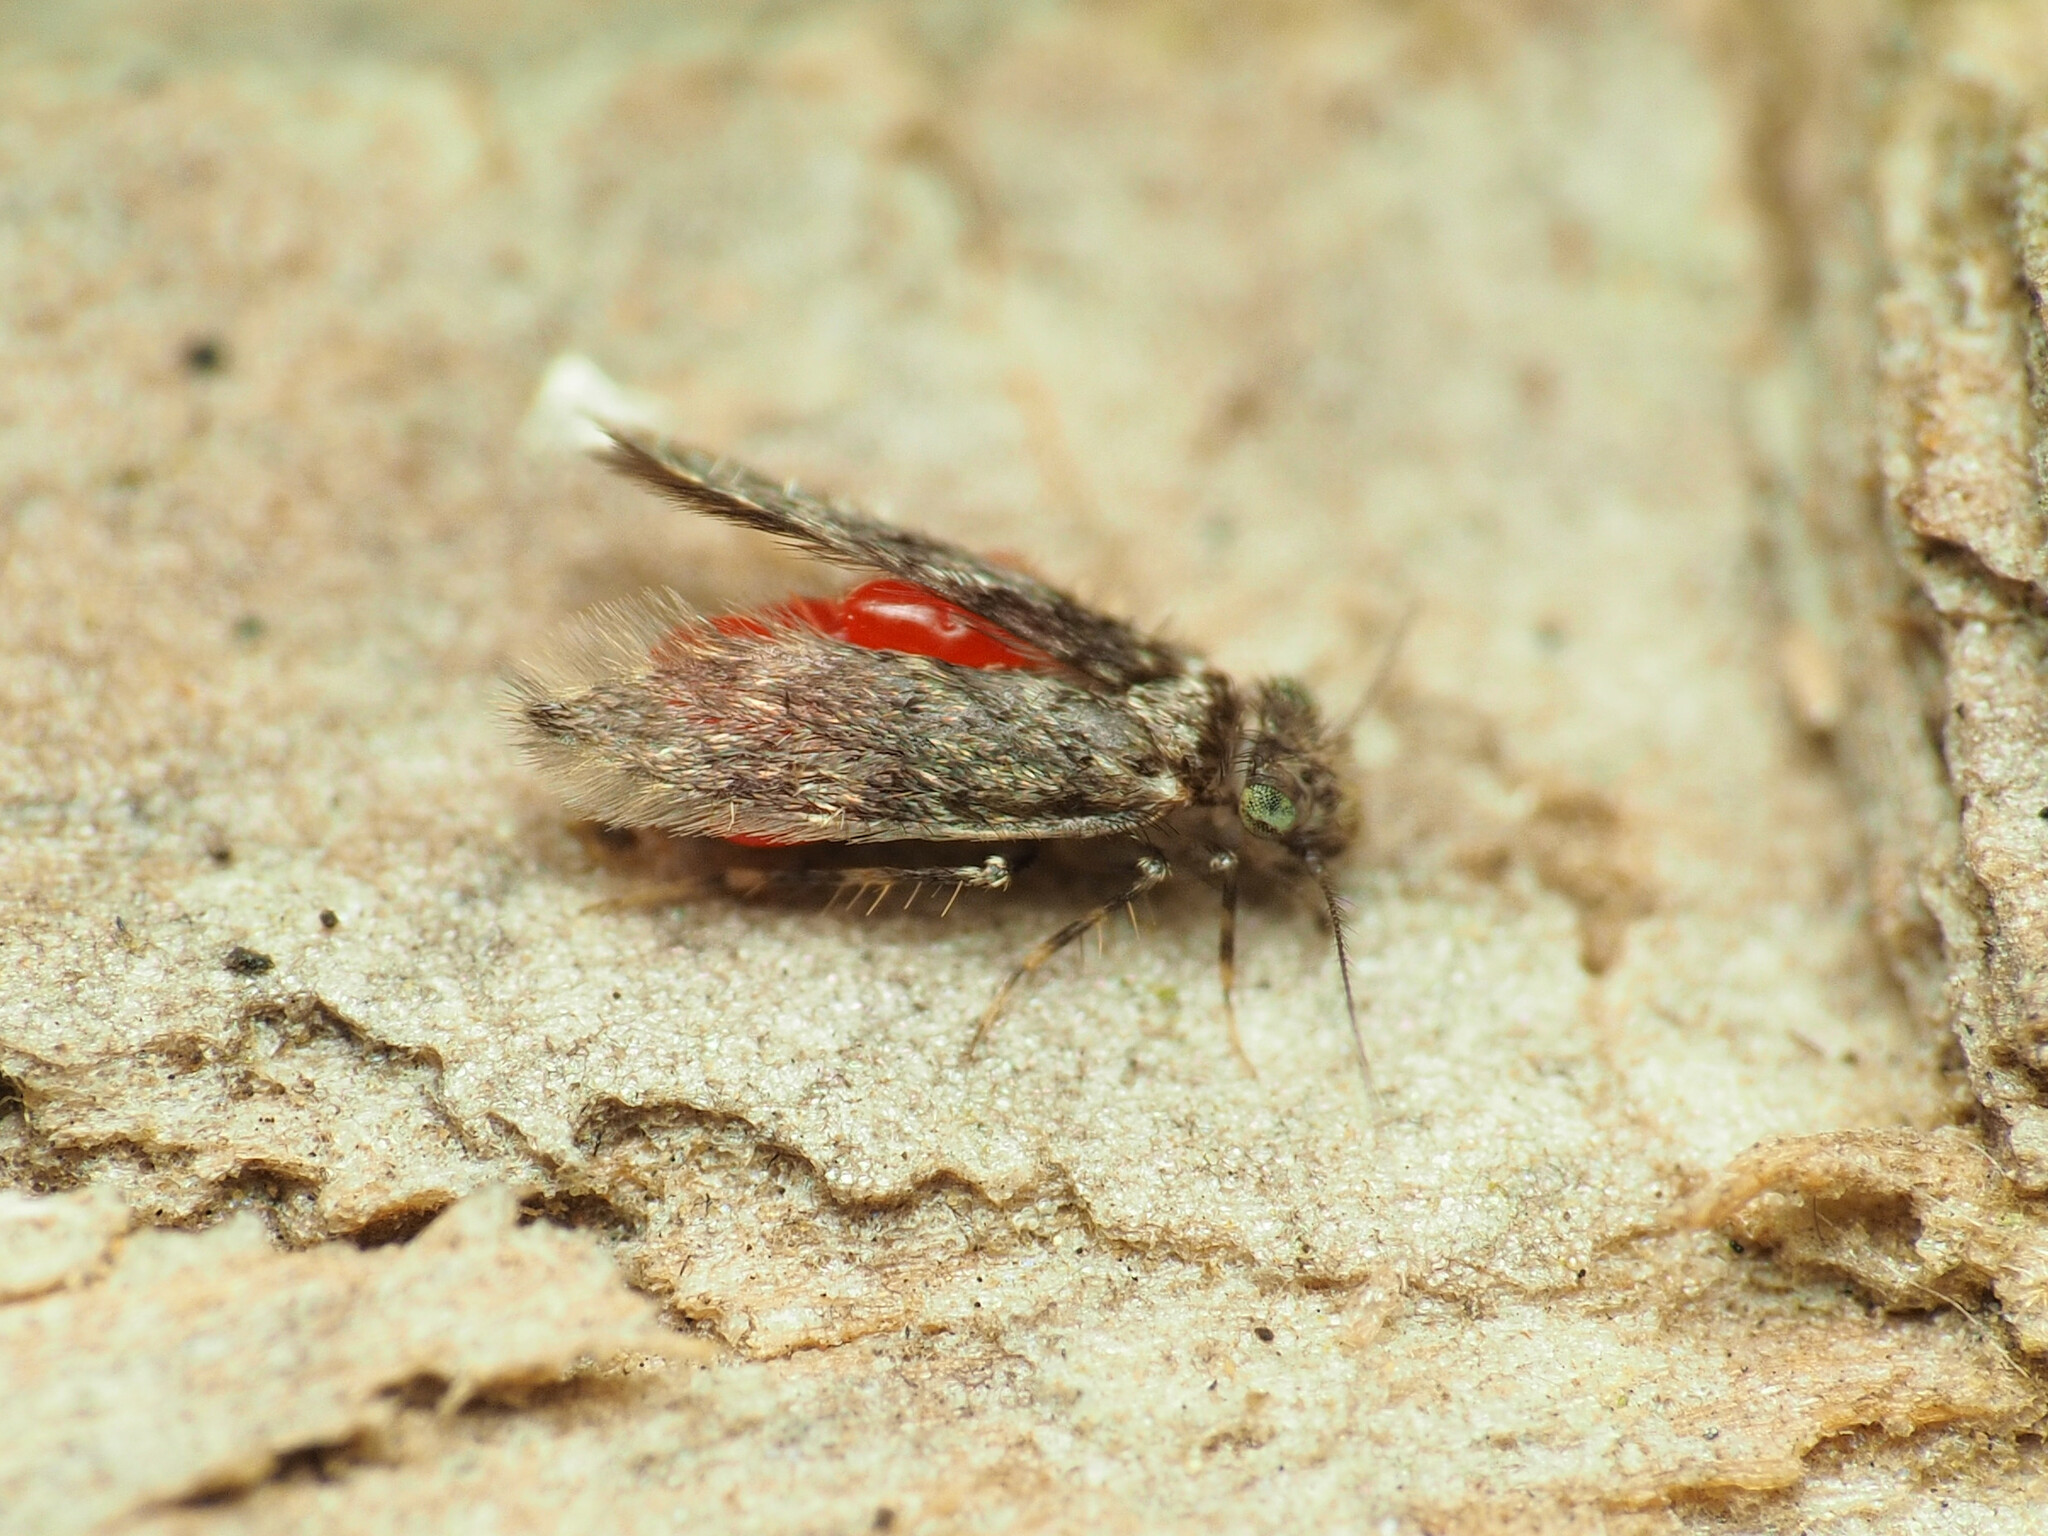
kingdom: Animalia
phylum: Arthropoda
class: Insecta
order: Psocodea
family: Lepidopsocidae
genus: Echmepteryx
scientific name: Echmepteryx hageni
